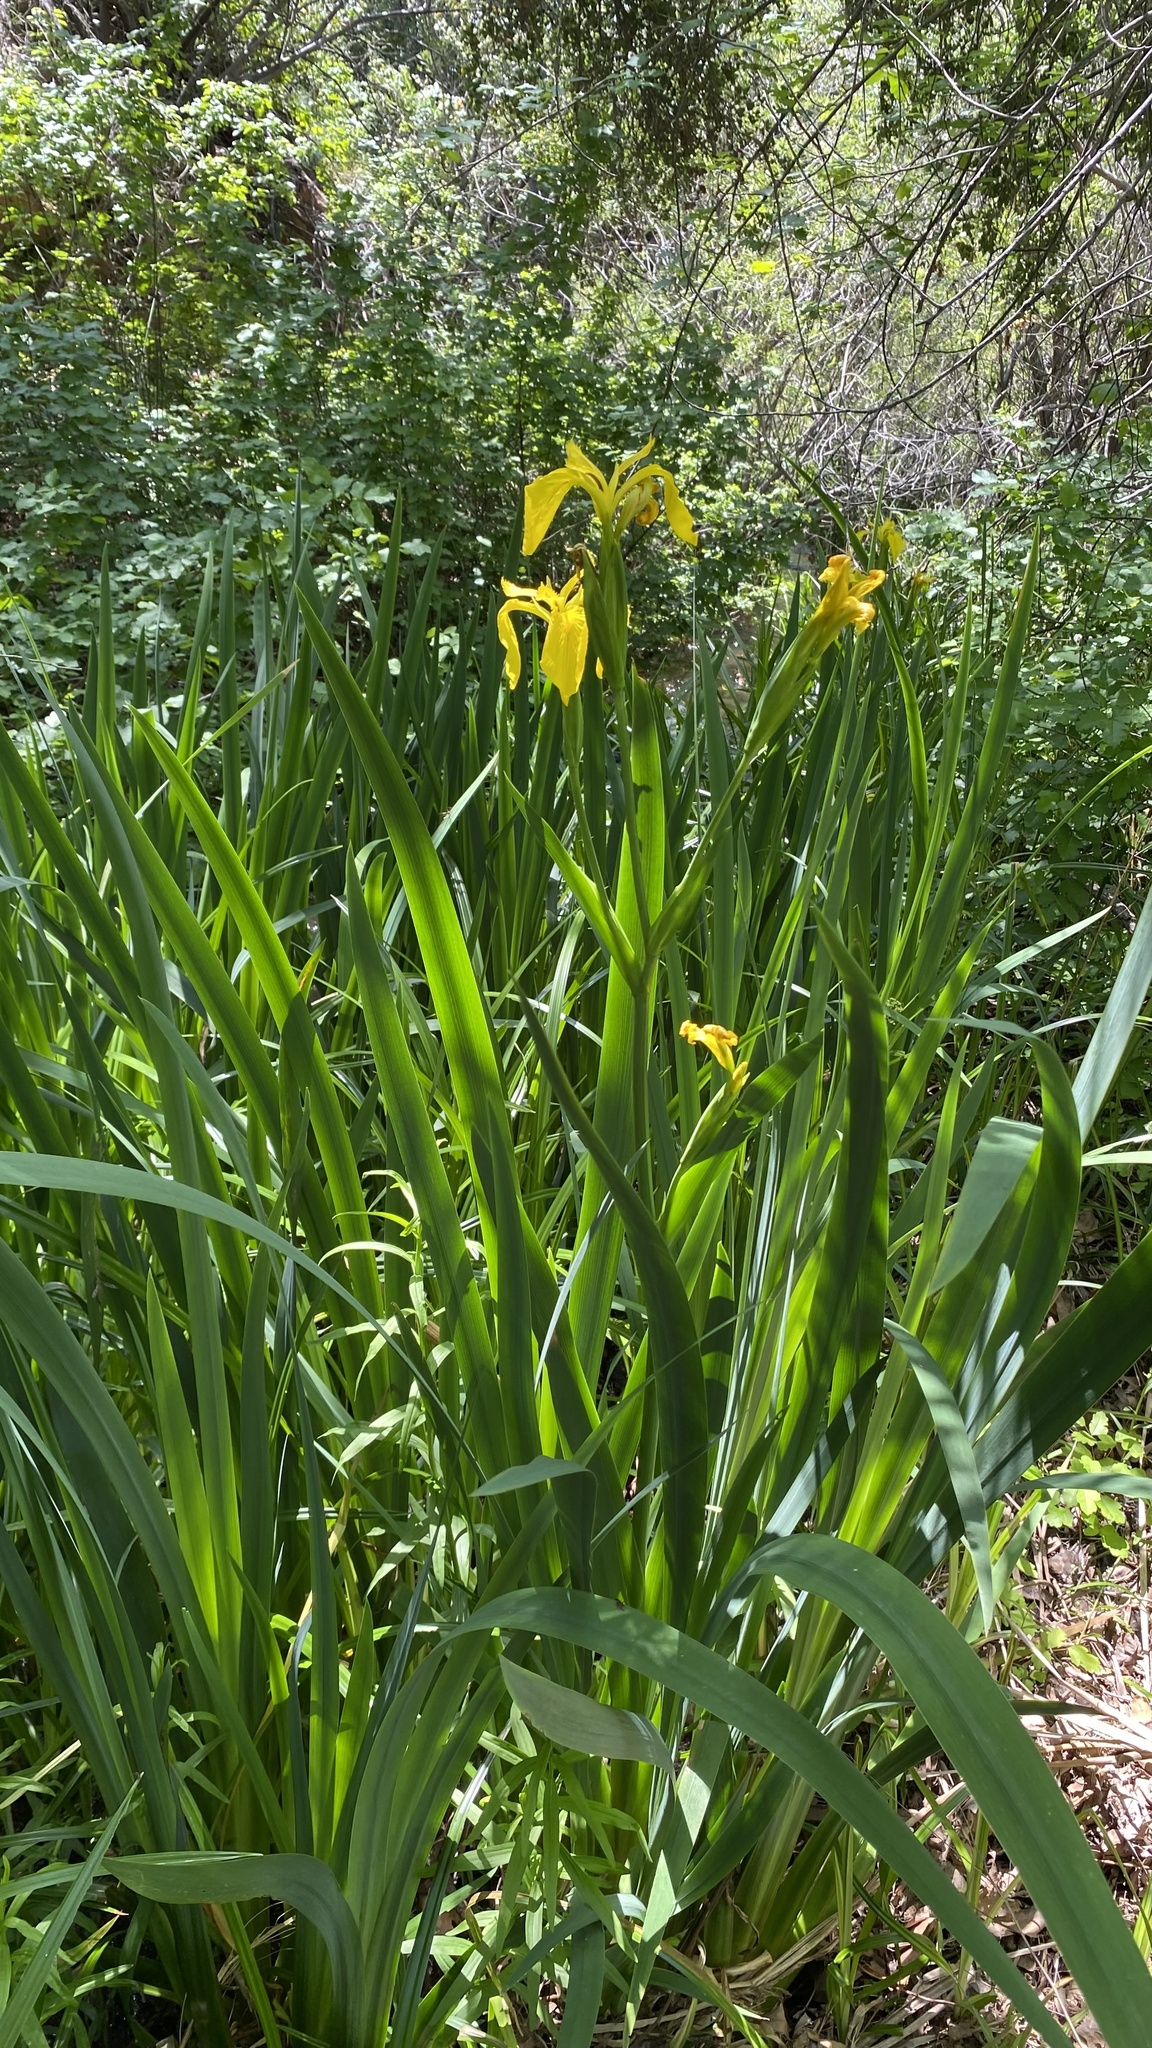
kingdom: Plantae
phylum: Tracheophyta
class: Liliopsida
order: Asparagales
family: Iridaceae
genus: Iris
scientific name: Iris pseudacorus
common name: Yellow flag
